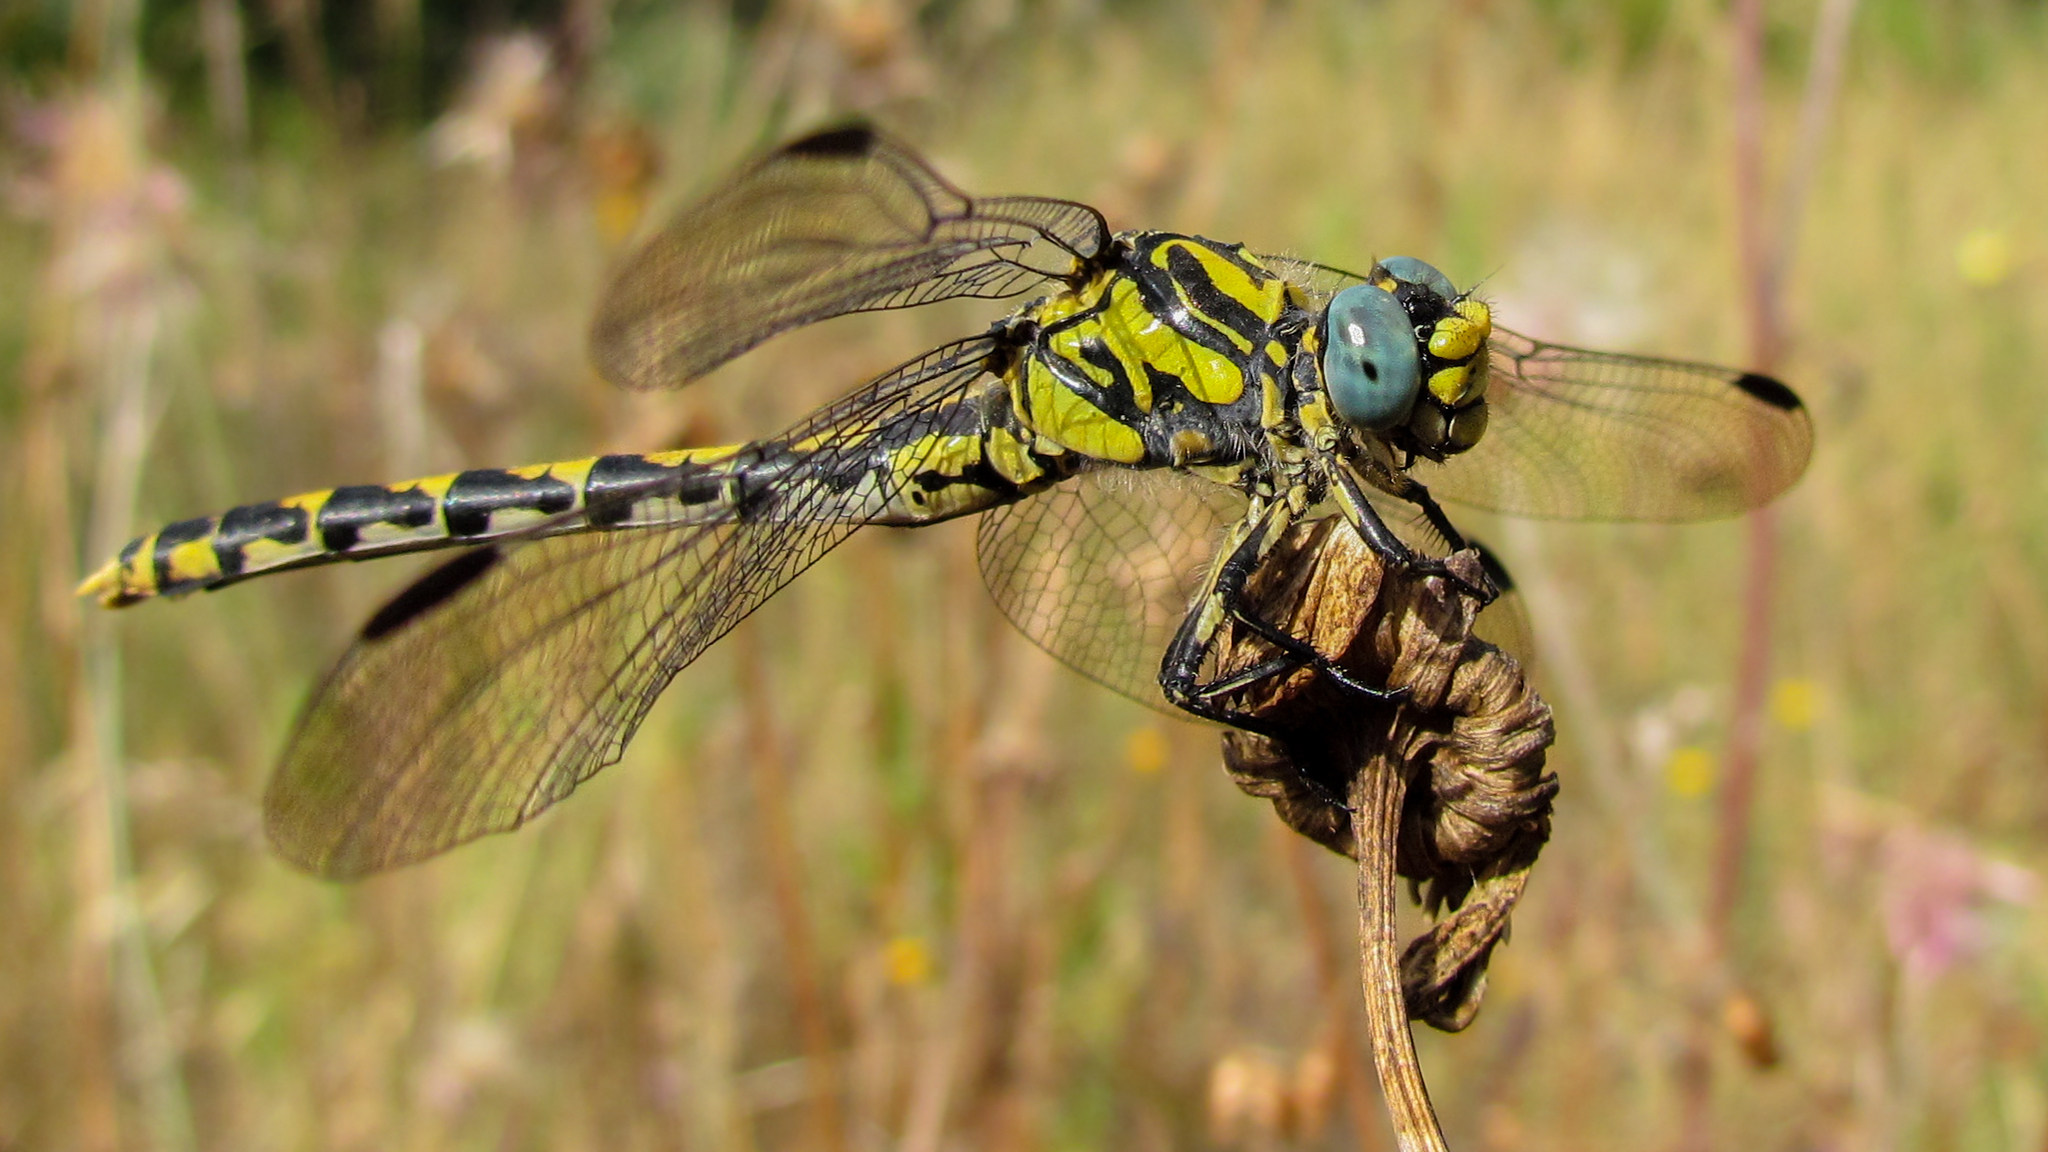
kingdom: Animalia
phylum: Arthropoda
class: Insecta
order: Odonata
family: Gomphidae
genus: Onychogomphus
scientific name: Onychogomphus uncatus
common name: Large pincertail
